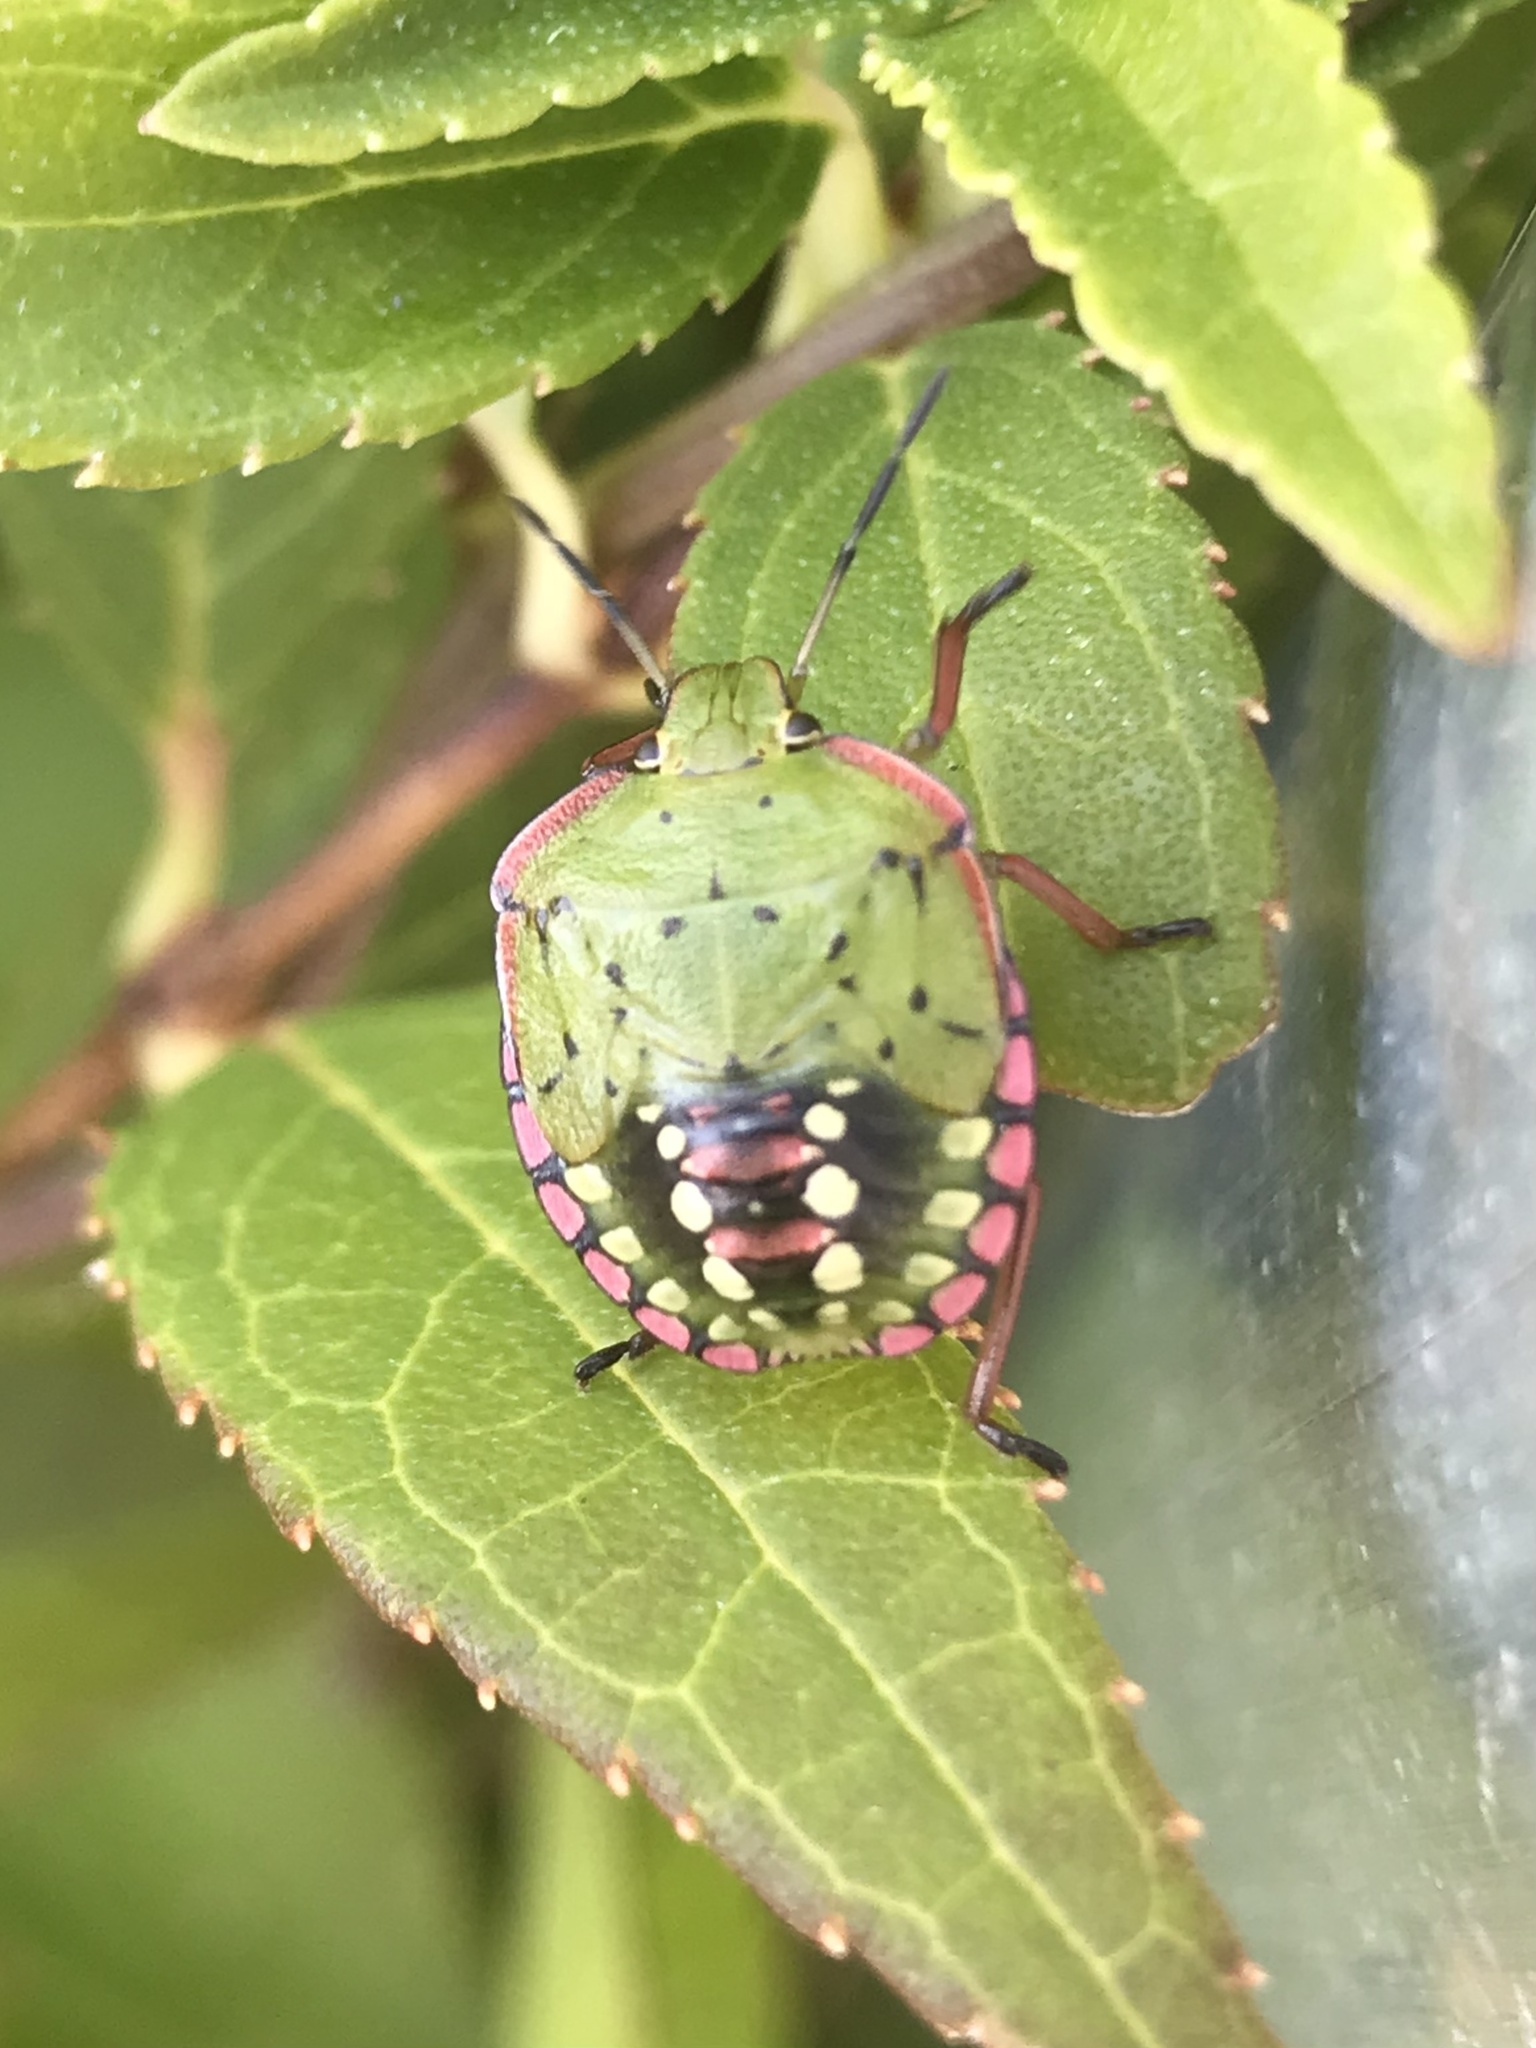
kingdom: Animalia
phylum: Arthropoda
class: Insecta
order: Hemiptera
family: Pentatomidae
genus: Nezara
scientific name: Nezara viridula
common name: Southern green stink bug
